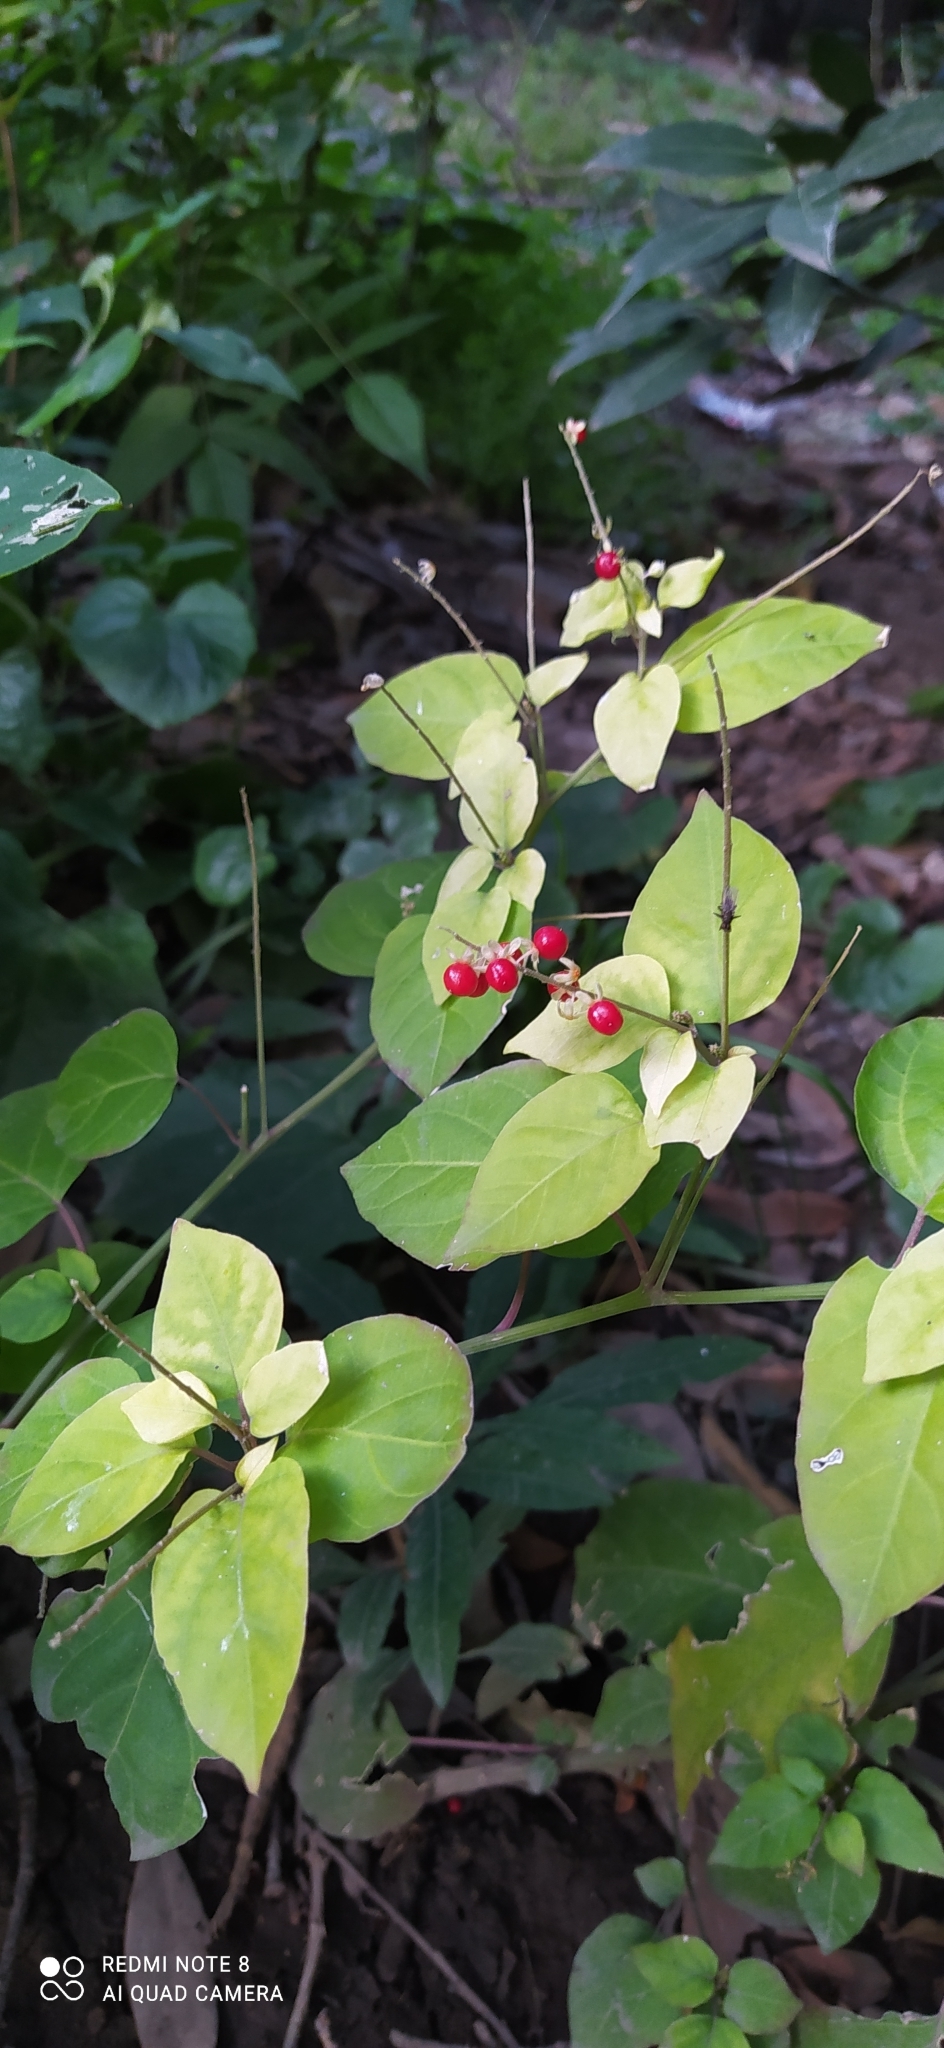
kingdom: Plantae
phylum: Tracheophyta
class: Magnoliopsida
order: Caryophyllales
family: Phytolaccaceae
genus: Rivina
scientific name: Rivina humilis
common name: Rougeplant
